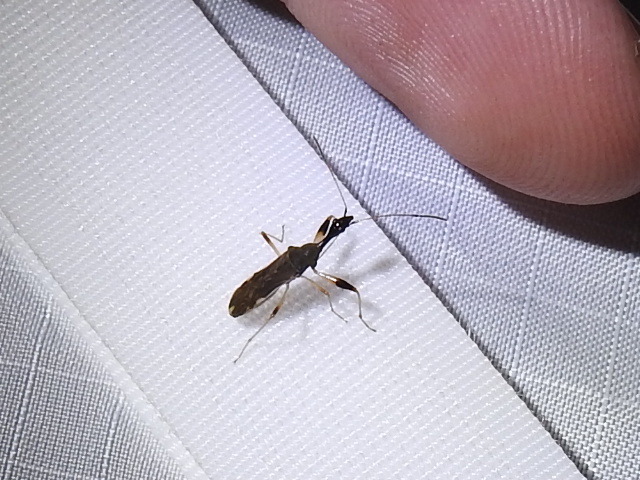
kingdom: Animalia
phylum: Arthropoda
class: Insecta
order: Hemiptera
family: Rhyparochromidae
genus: Myodocha
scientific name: Myodocha serripes
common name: Long-necked seed bug
